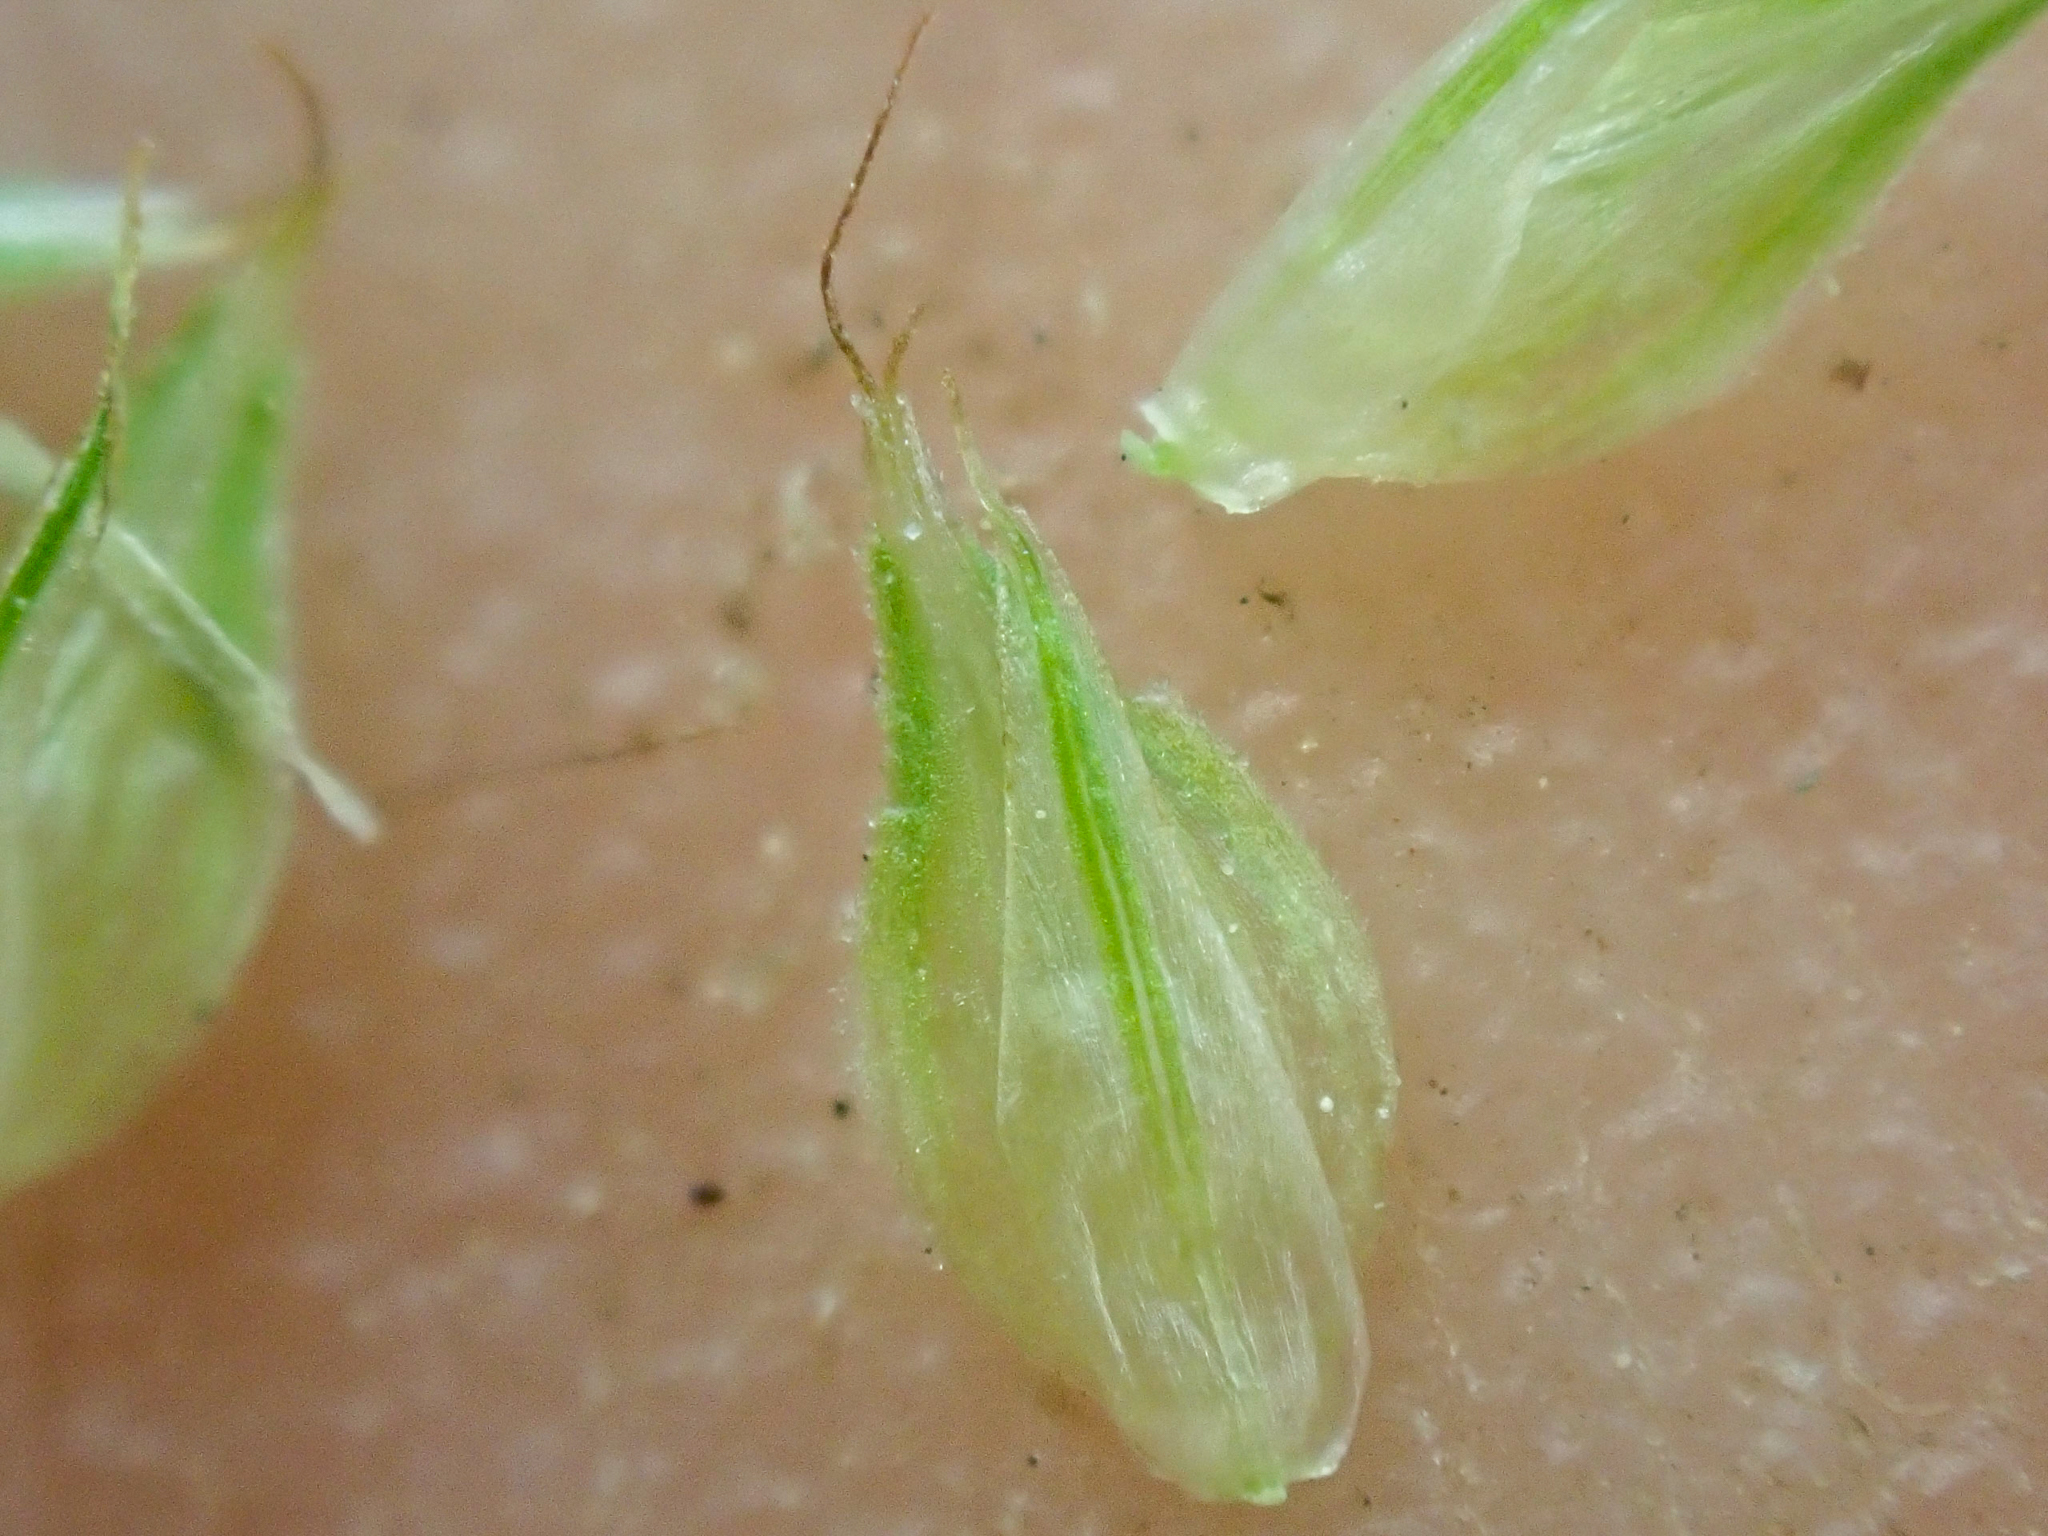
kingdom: Plantae
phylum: Tracheophyta
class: Liliopsida
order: Poales
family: Cyperaceae
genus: Carex
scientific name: Carex athrostachya
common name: Slenderbeak sedge
